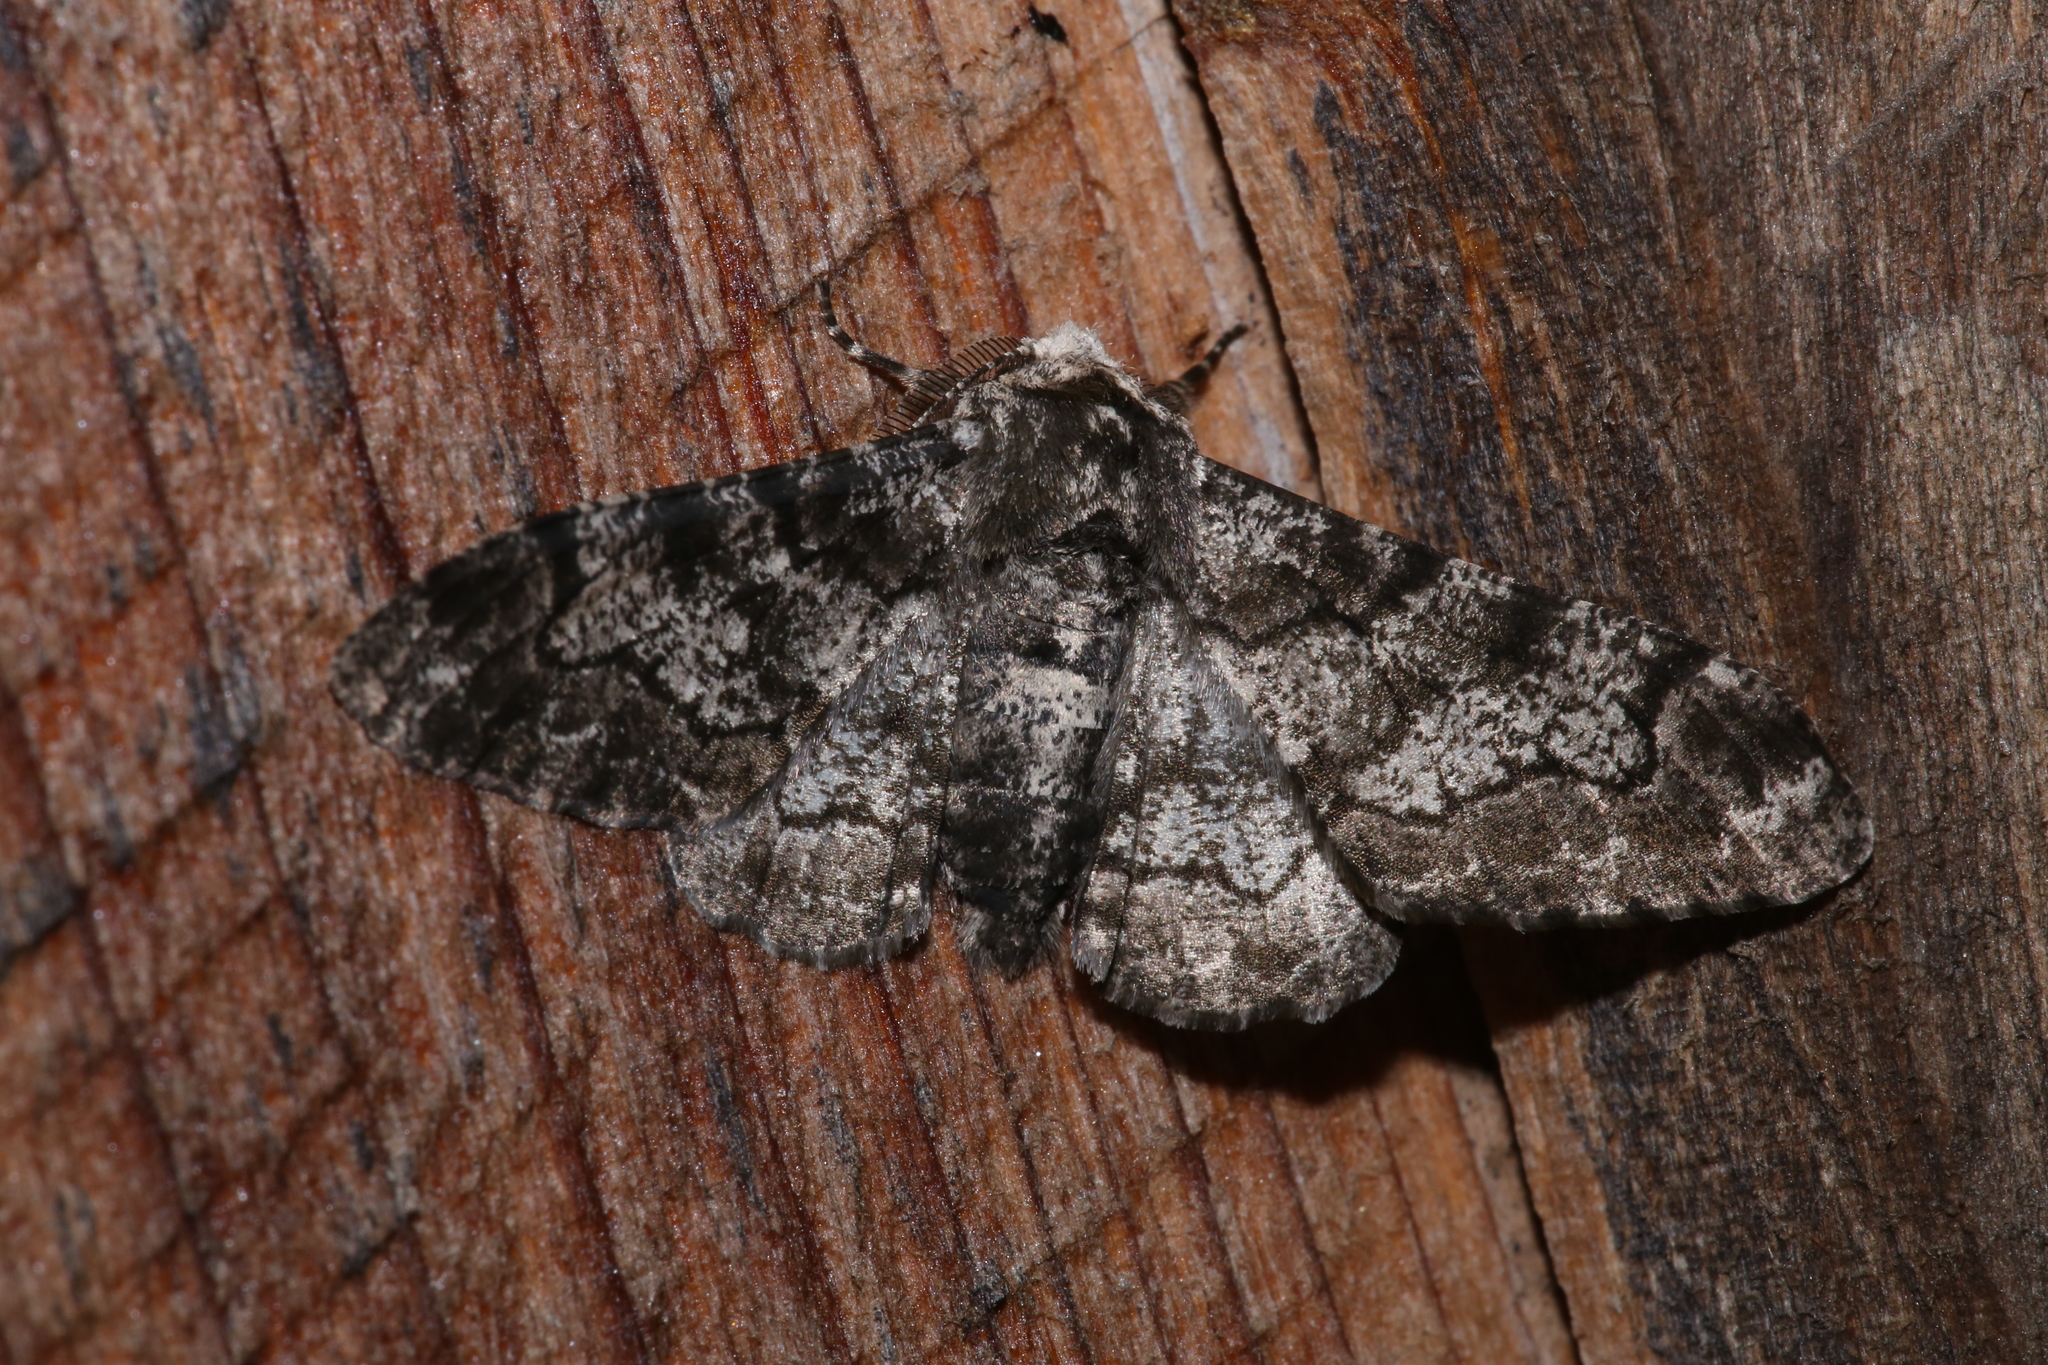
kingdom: Animalia
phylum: Arthropoda
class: Insecta
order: Lepidoptera
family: Geometridae
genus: Biston
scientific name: Biston betularia
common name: Peppered moth
